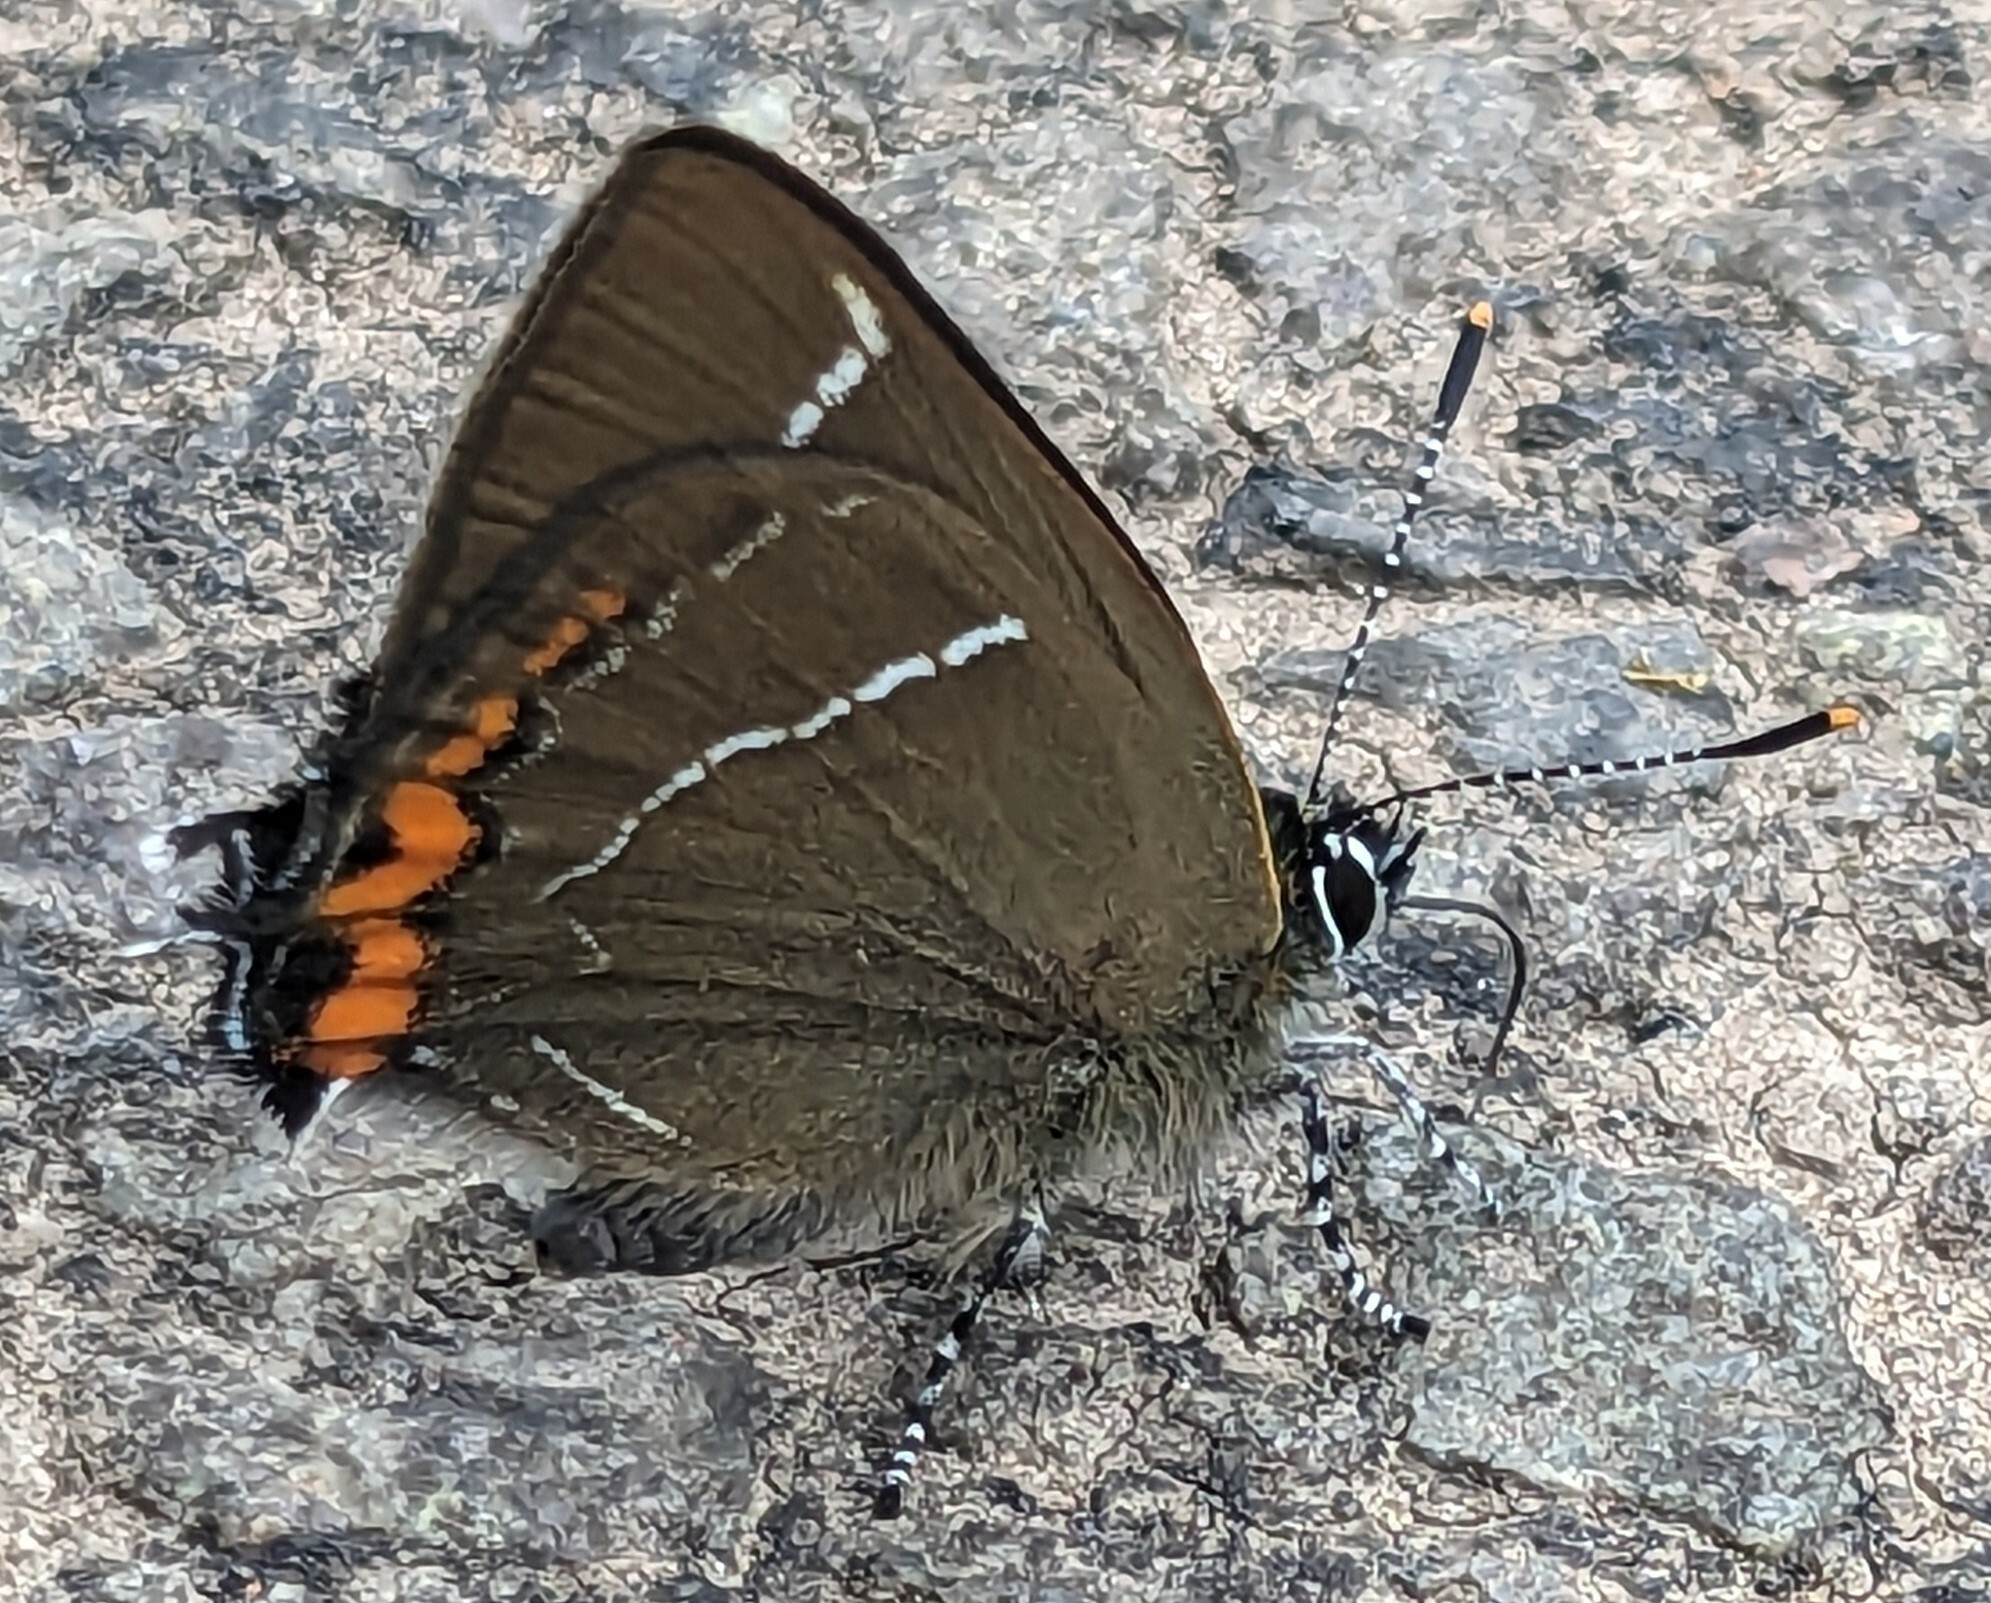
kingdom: Animalia
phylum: Arthropoda
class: Insecta
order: Lepidoptera
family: Lycaenidae
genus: Satyrium
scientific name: Satyrium w-album
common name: White-letter hairstreak
